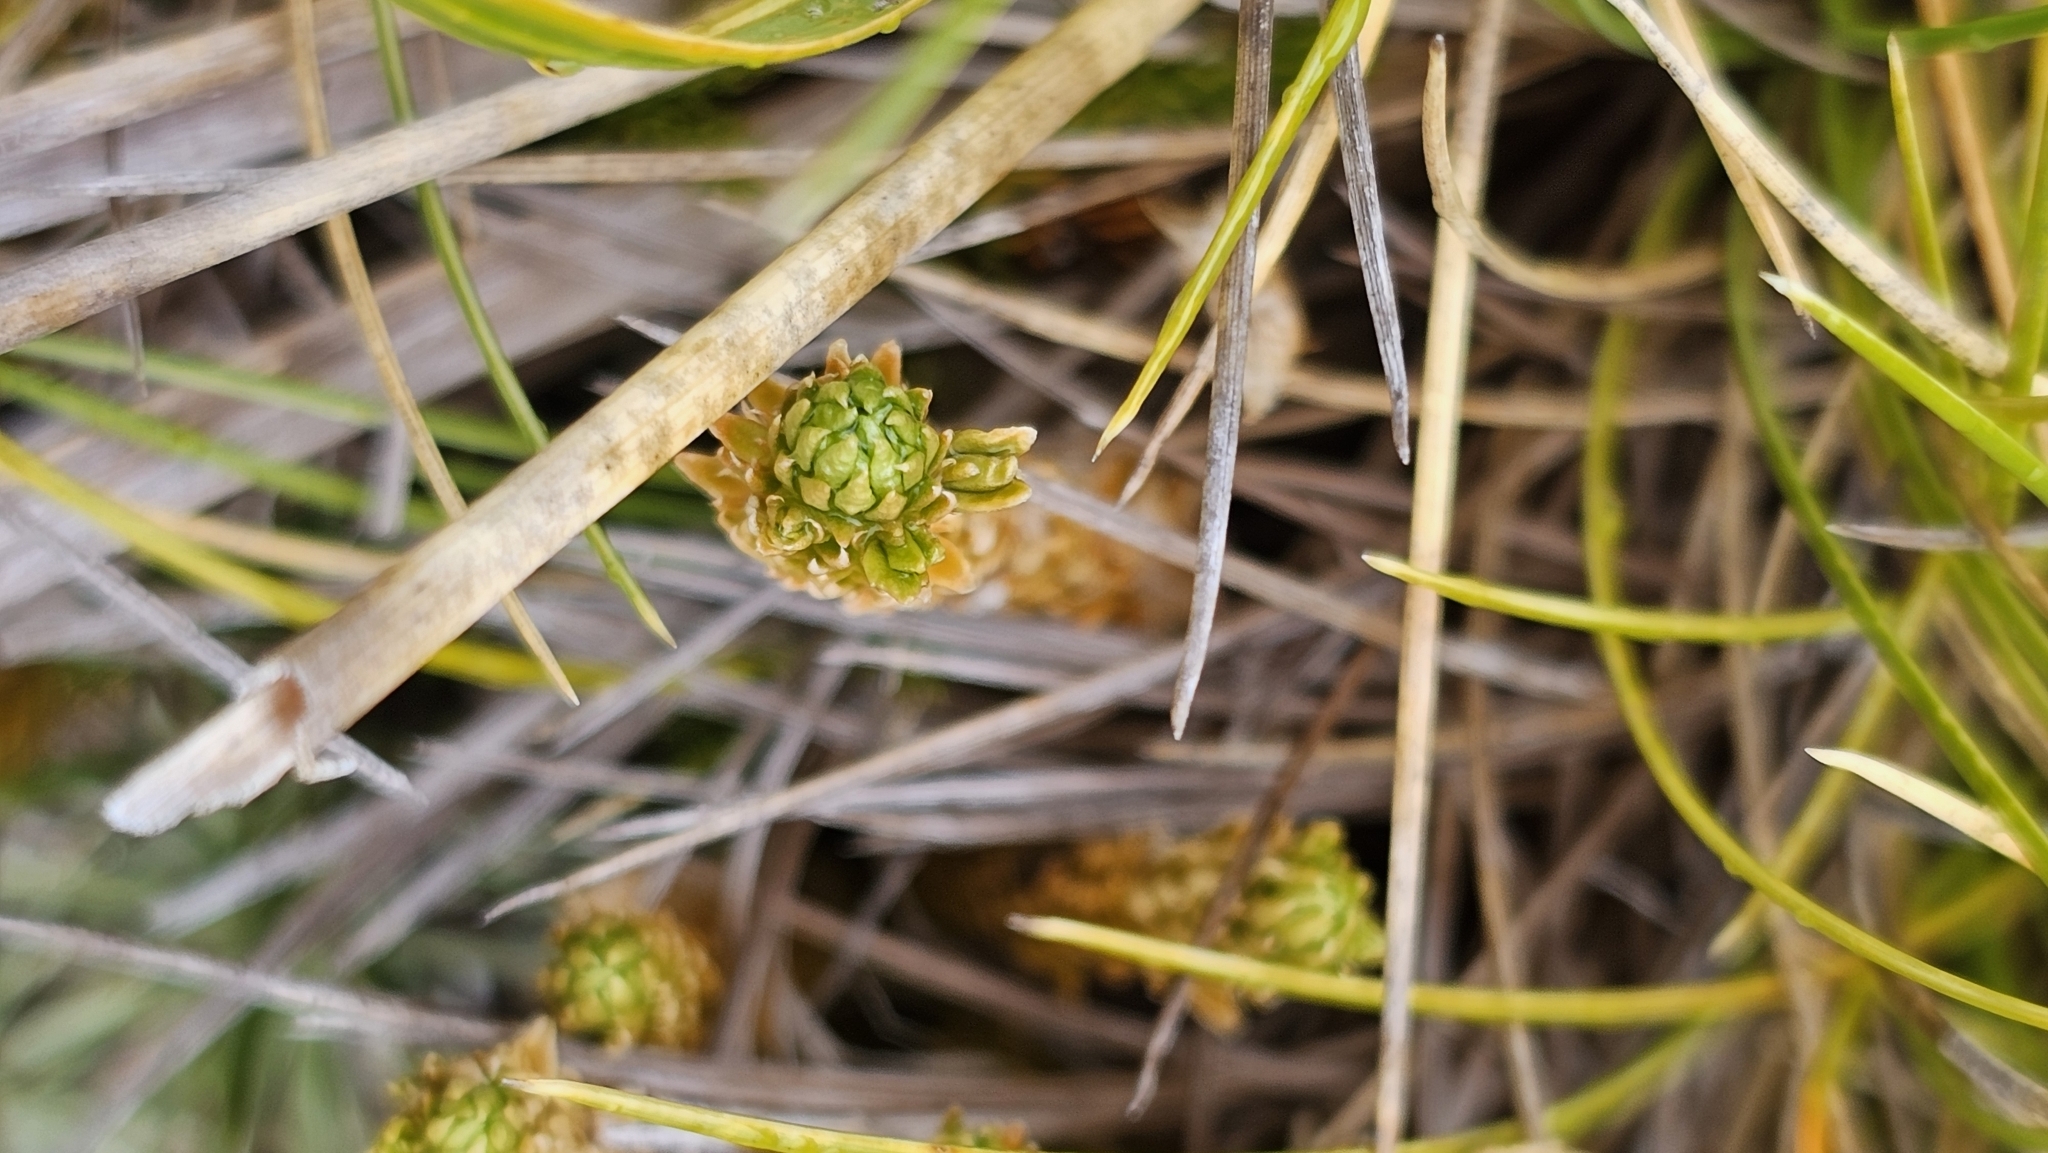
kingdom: Plantae
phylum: Tracheophyta
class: Lycopodiopsida
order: Lycopodiales
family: Lycopodiaceae
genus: Huperzia
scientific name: Huperzia australiana
